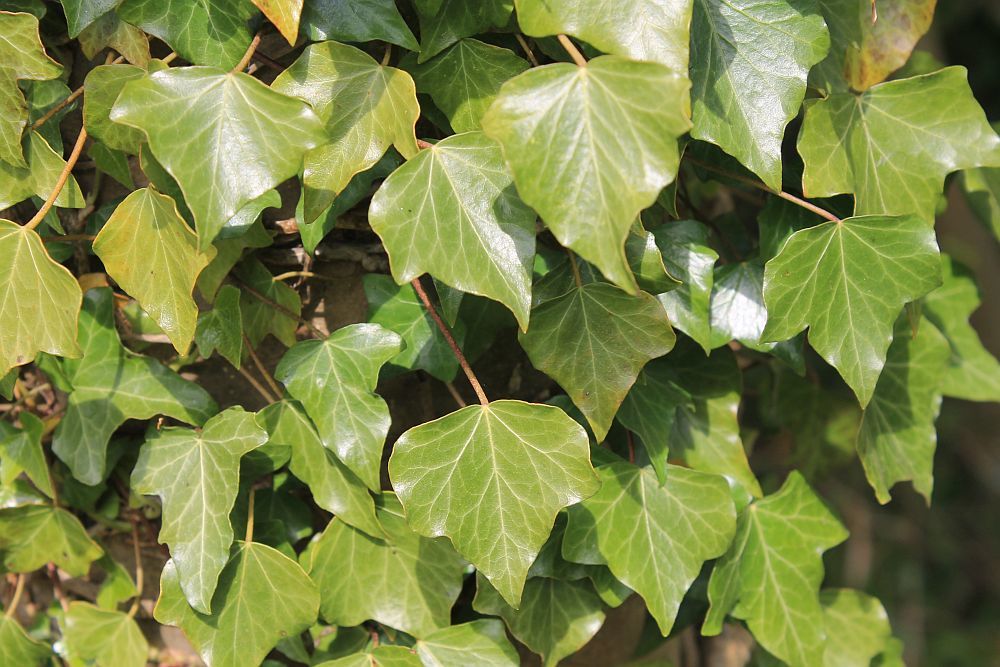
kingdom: Plantae
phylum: Tracheophyta
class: Magnoliopsida
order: Apiales
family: Araliaceae
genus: Hedera
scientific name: Hedera helix
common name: Ivy
